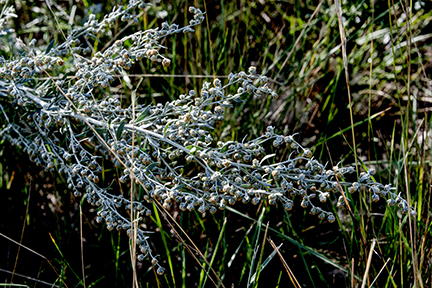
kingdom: Plantae
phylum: Tracheophyta
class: Magnoliopsida
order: Asterales
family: Asteraceae
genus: Artemisia
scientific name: Artemisia ludoviciana
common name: Western mugwort
